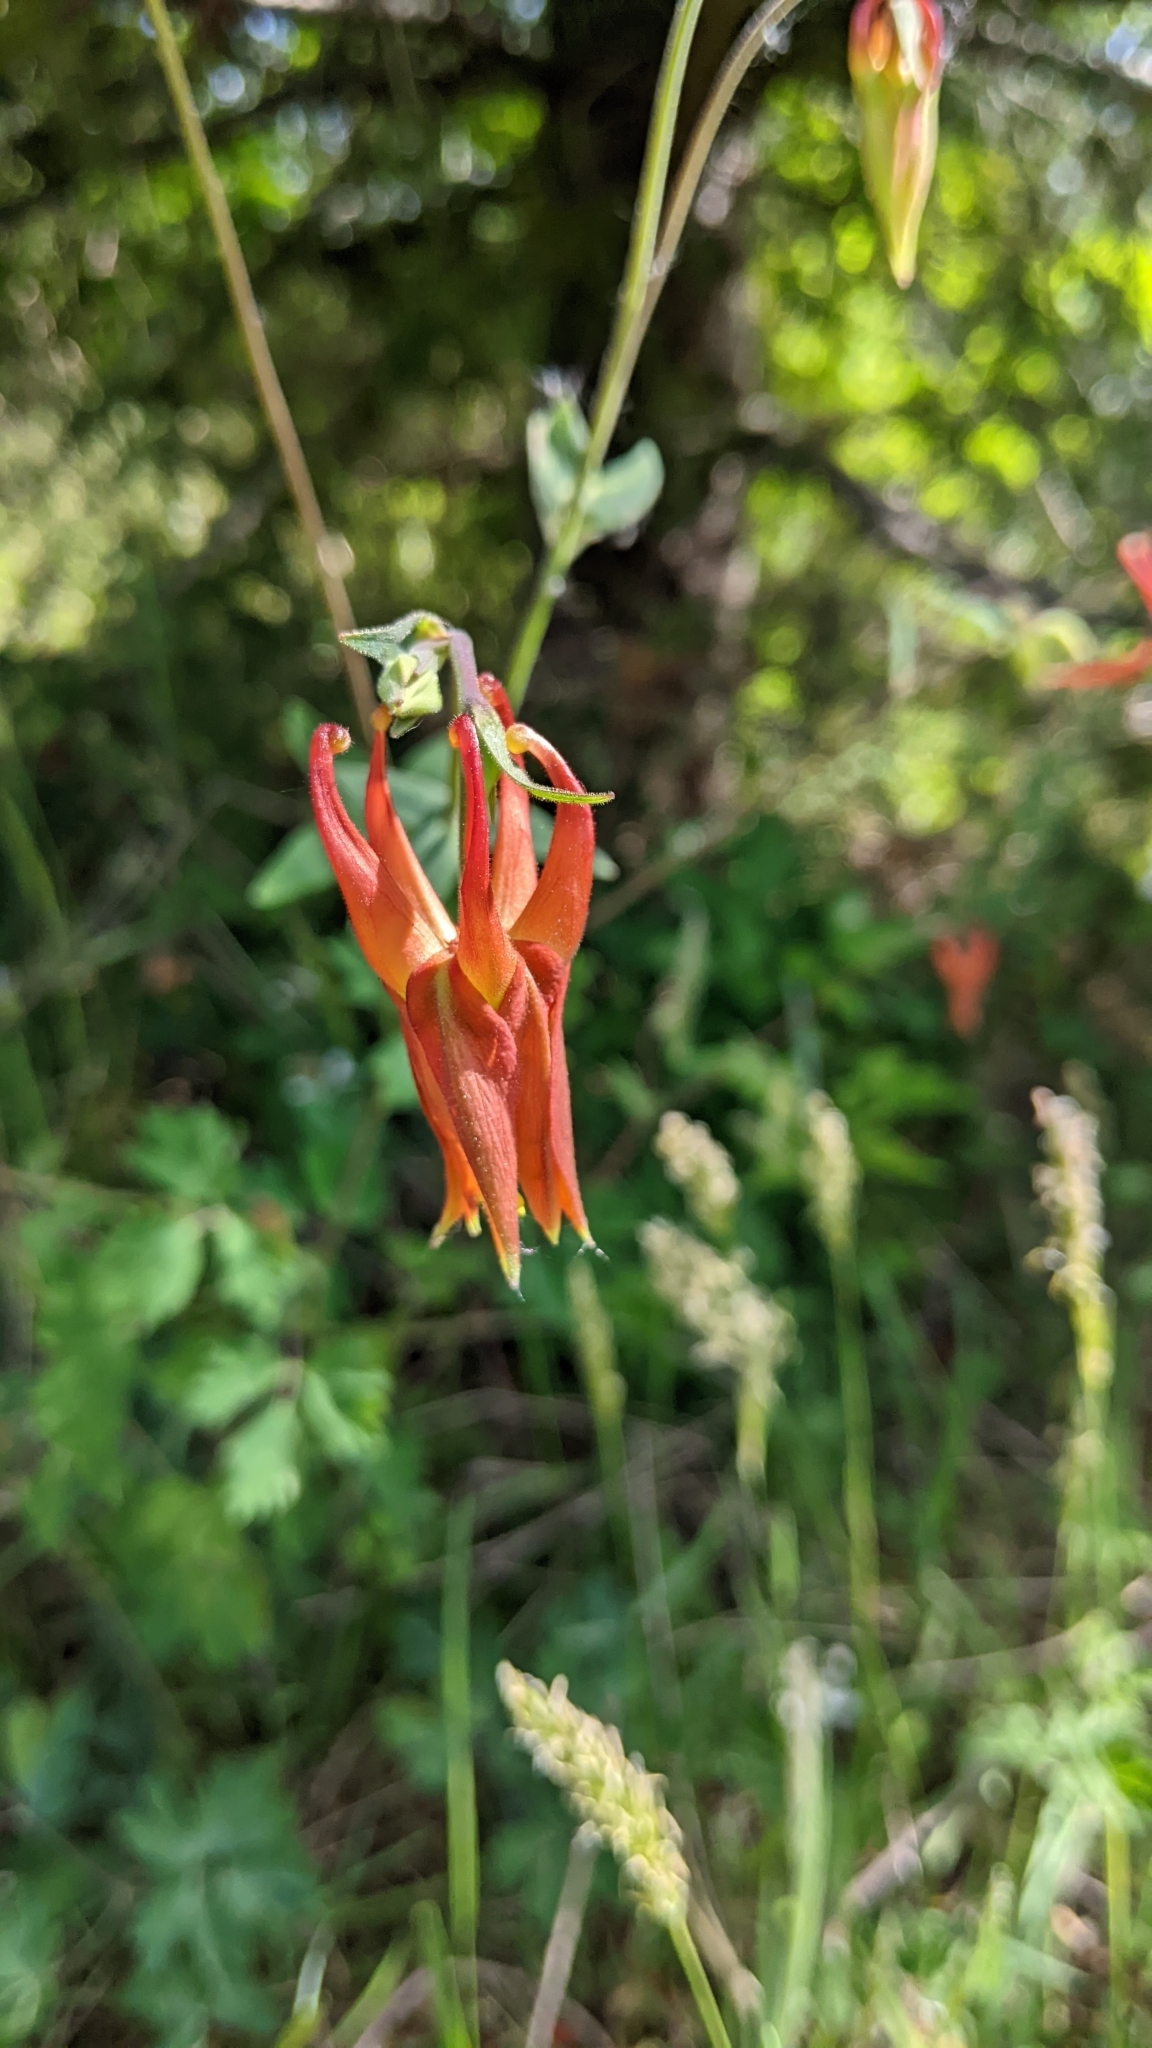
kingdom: Plantae
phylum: Tracheophyta
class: Magnoliopsida
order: Ranunculales
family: Ranunculaceae
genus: Aquilegia
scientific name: Aquilegia formosa
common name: Sitka columbine
